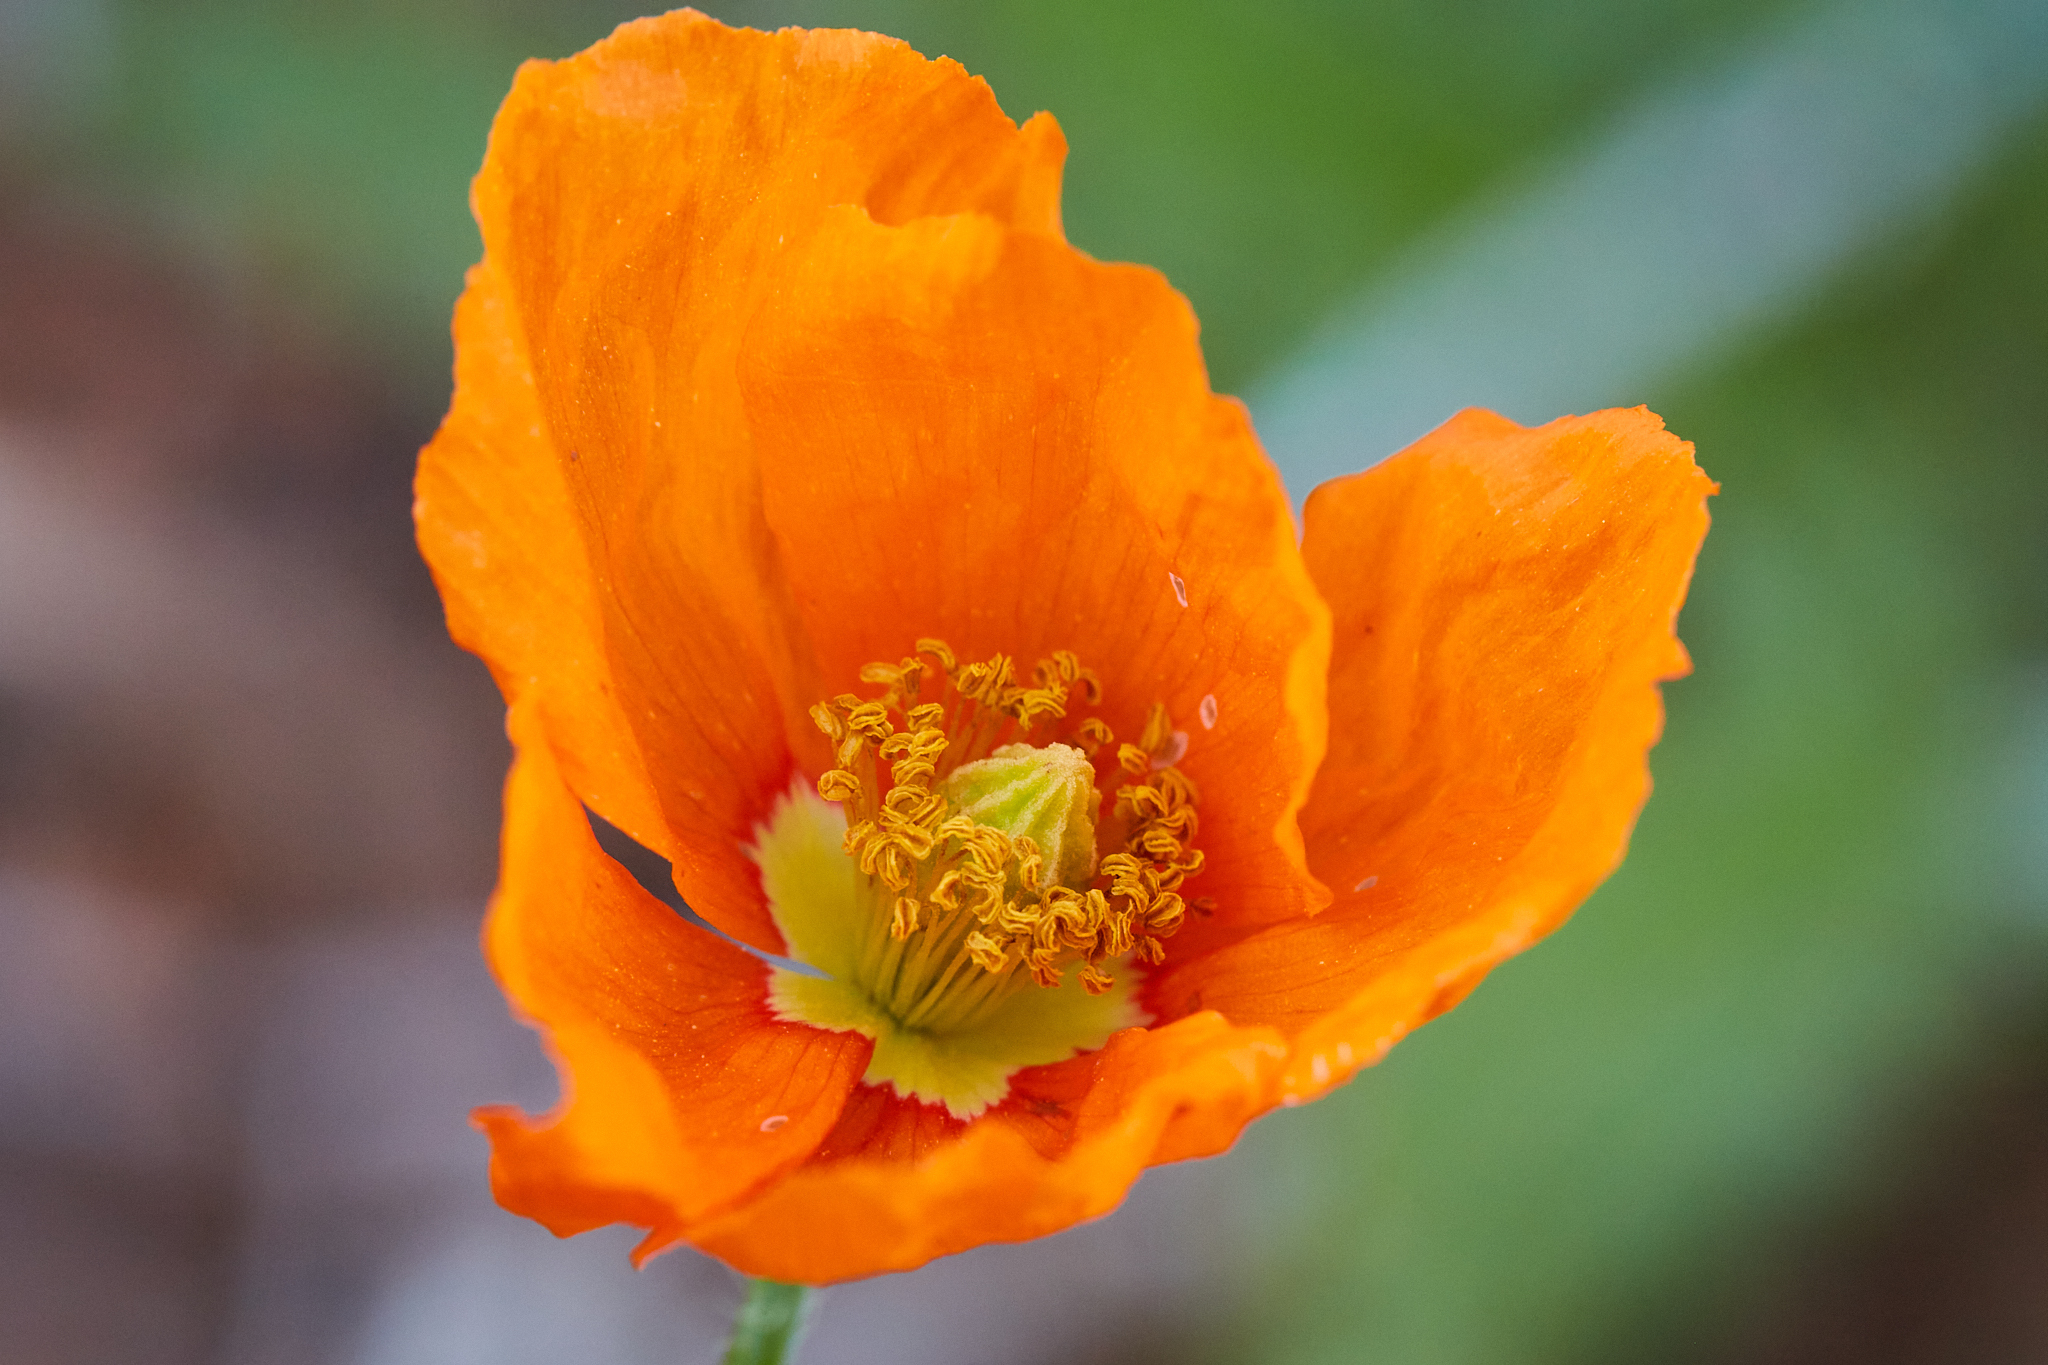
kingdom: Plantae
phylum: Tracheophyta
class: Magnoliopsida
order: Ranunculales
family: Papaveraceae
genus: Papaver
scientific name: Papaver californicum
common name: Fire poppy
